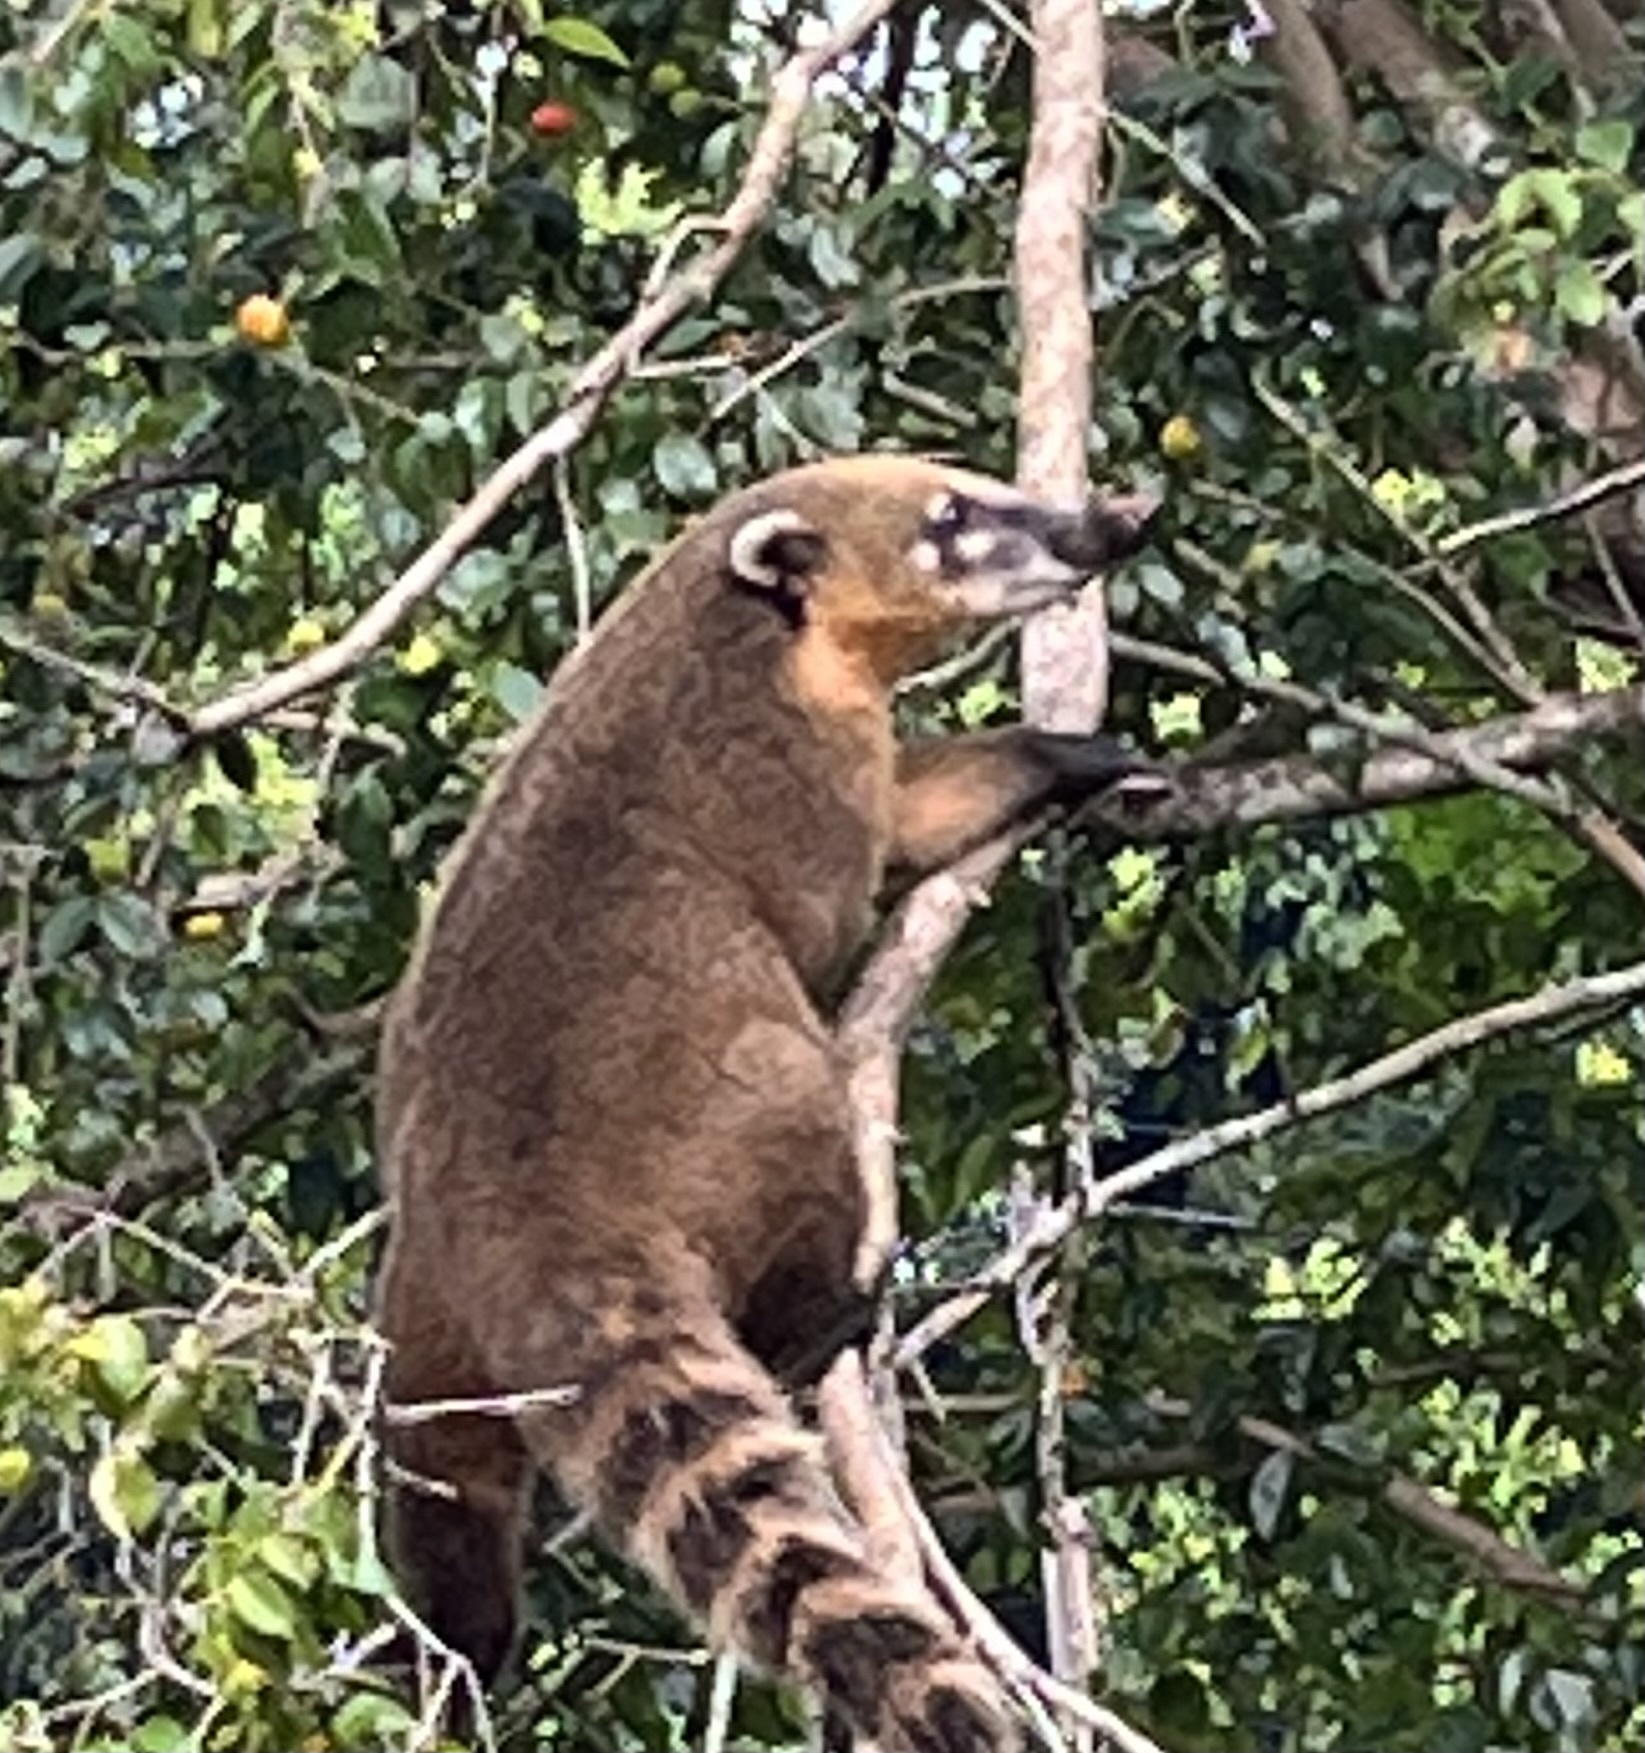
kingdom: Animalia
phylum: Chordata
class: Mammalia
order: Carnivora
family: Procyonidae
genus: Nasua
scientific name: Nasua nasua
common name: South american coati
